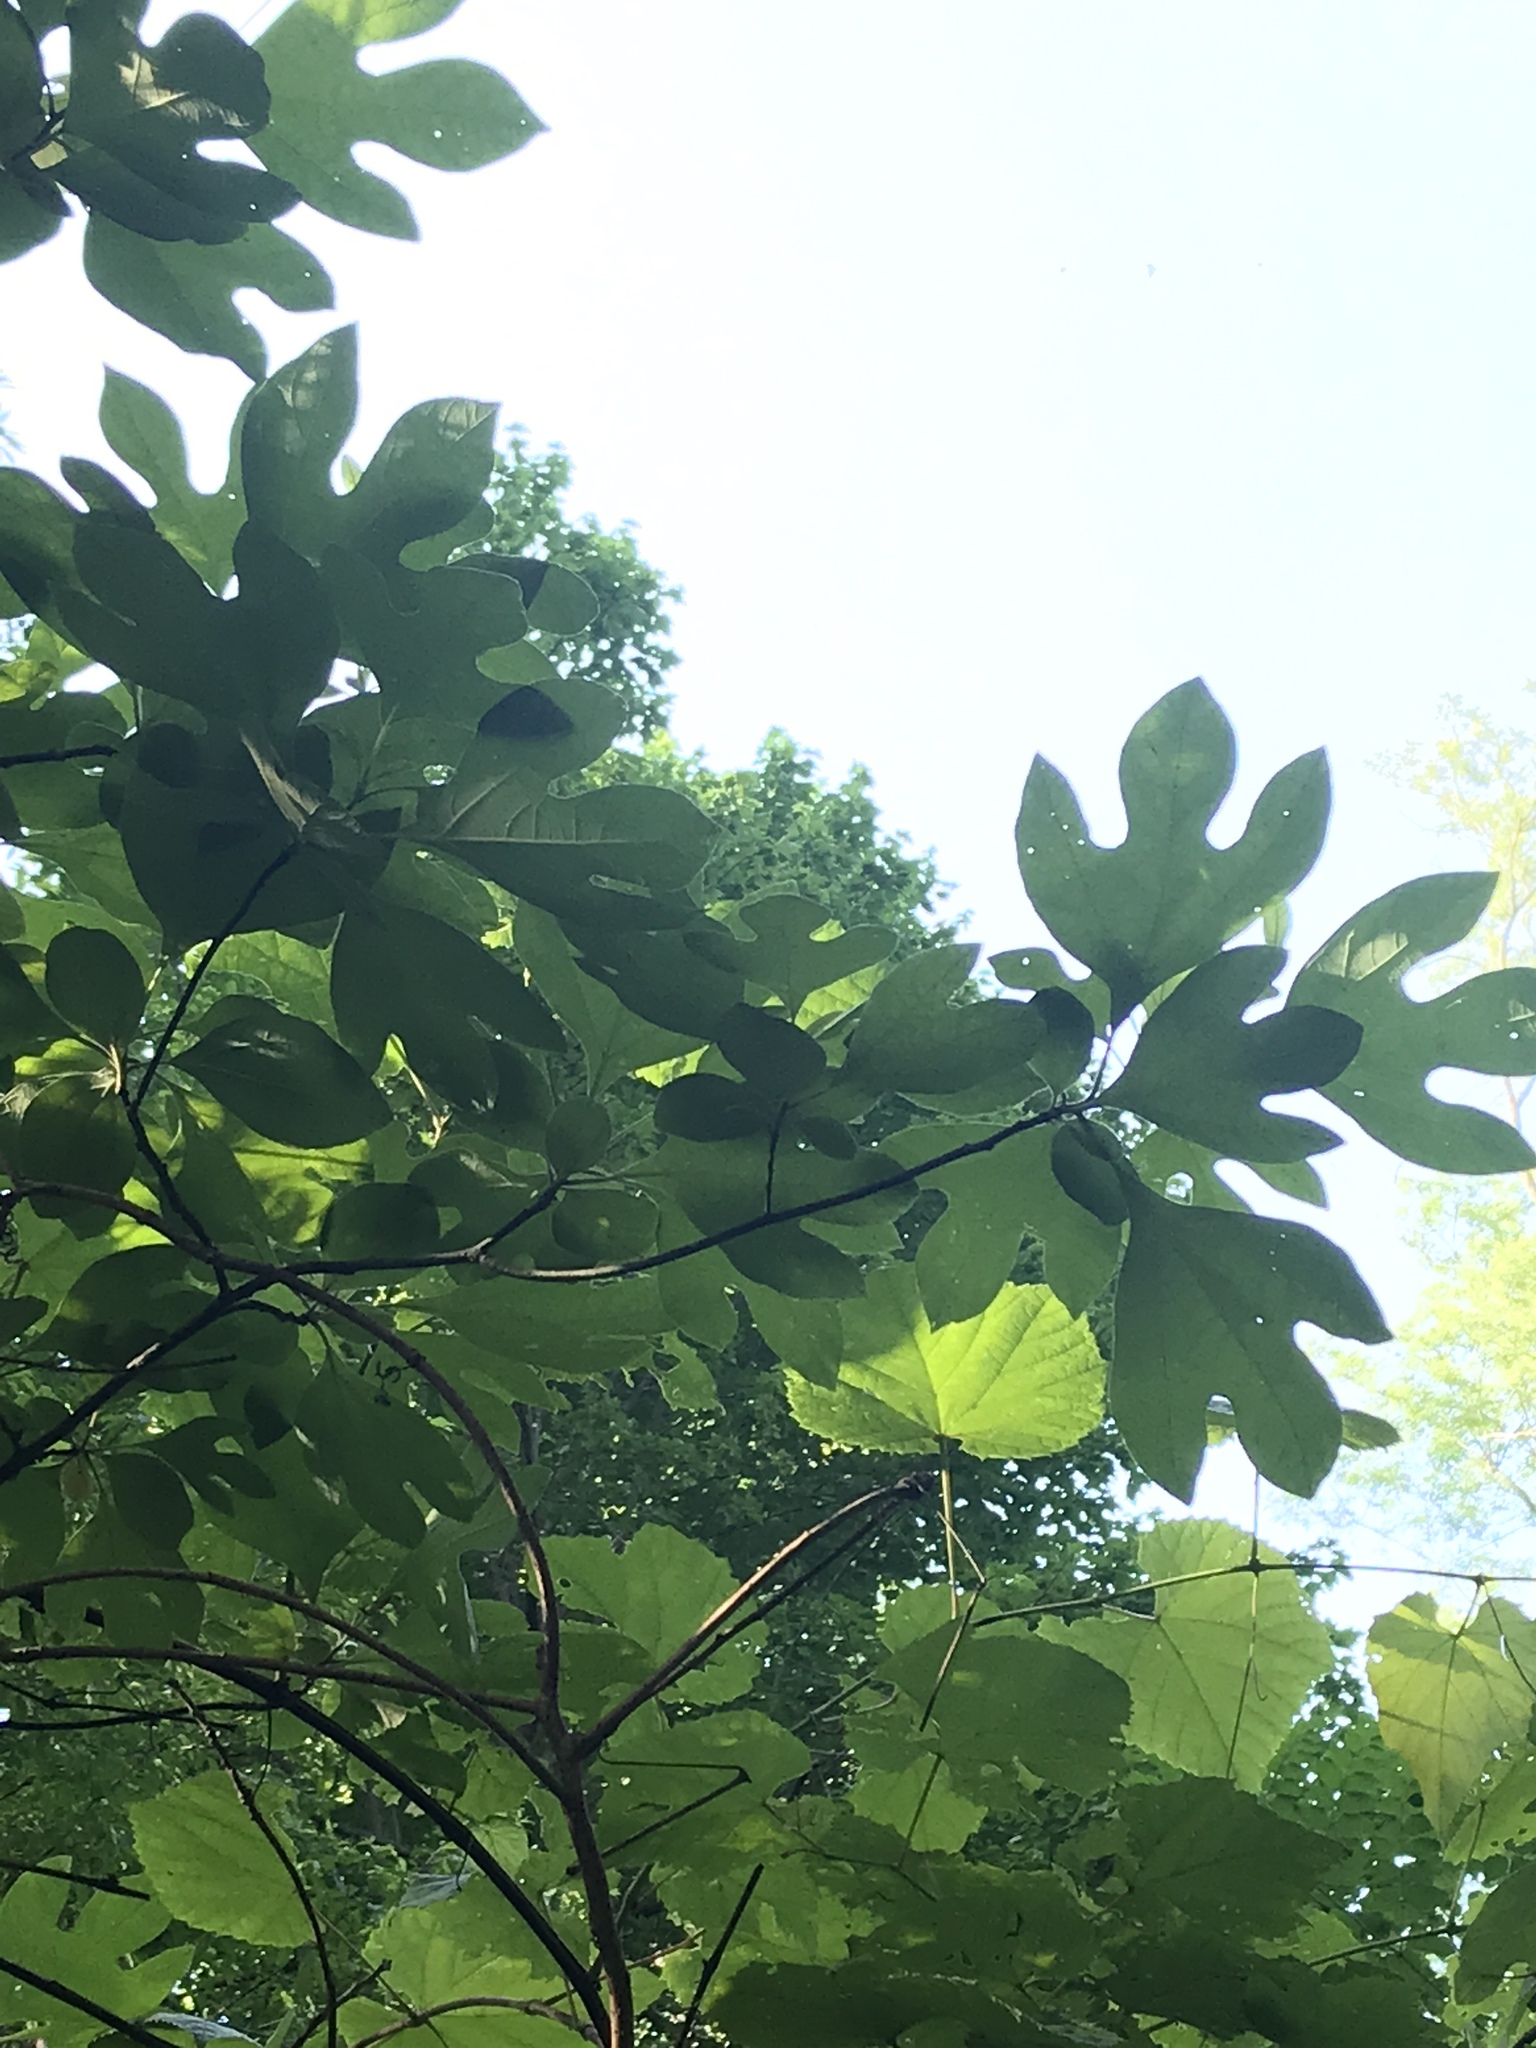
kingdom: Plantae
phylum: Tracheophyta
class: Magnoliopsida
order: Laurales
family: Lauraceae
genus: Sassafras
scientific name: Sassafras albidum
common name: Sassafras
